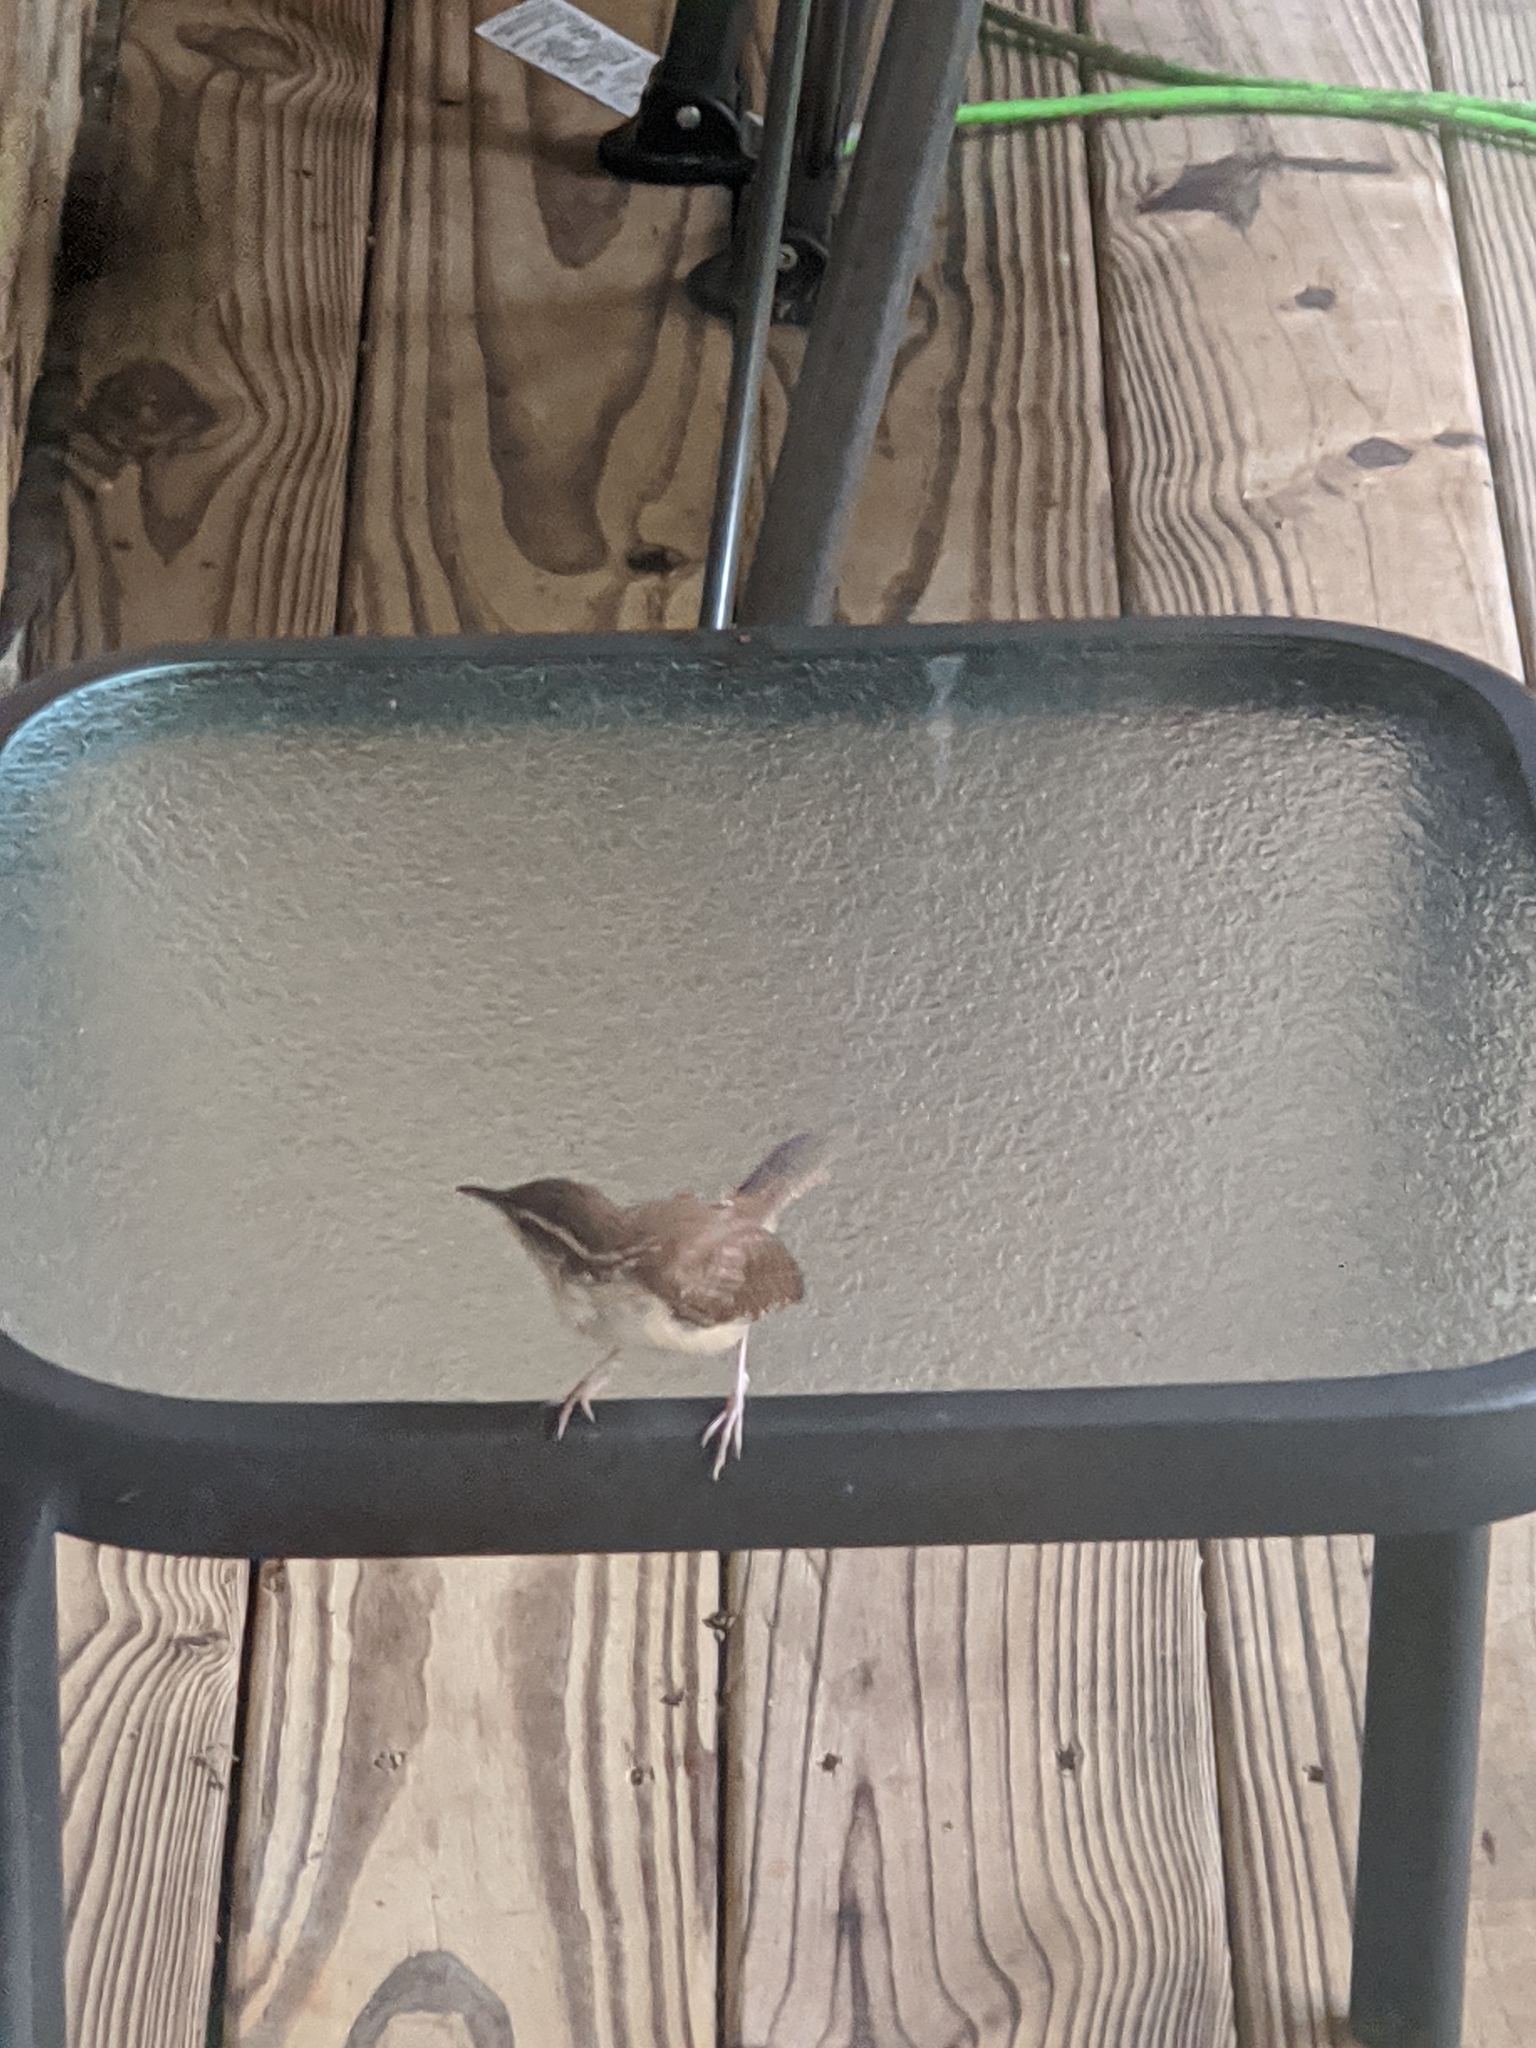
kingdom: Animalia
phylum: Chordata
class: Aves
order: Passeriformes
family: Troglodytidae
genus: Thryothorus
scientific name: Thryothorus ludovicianus
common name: Carolina wren
